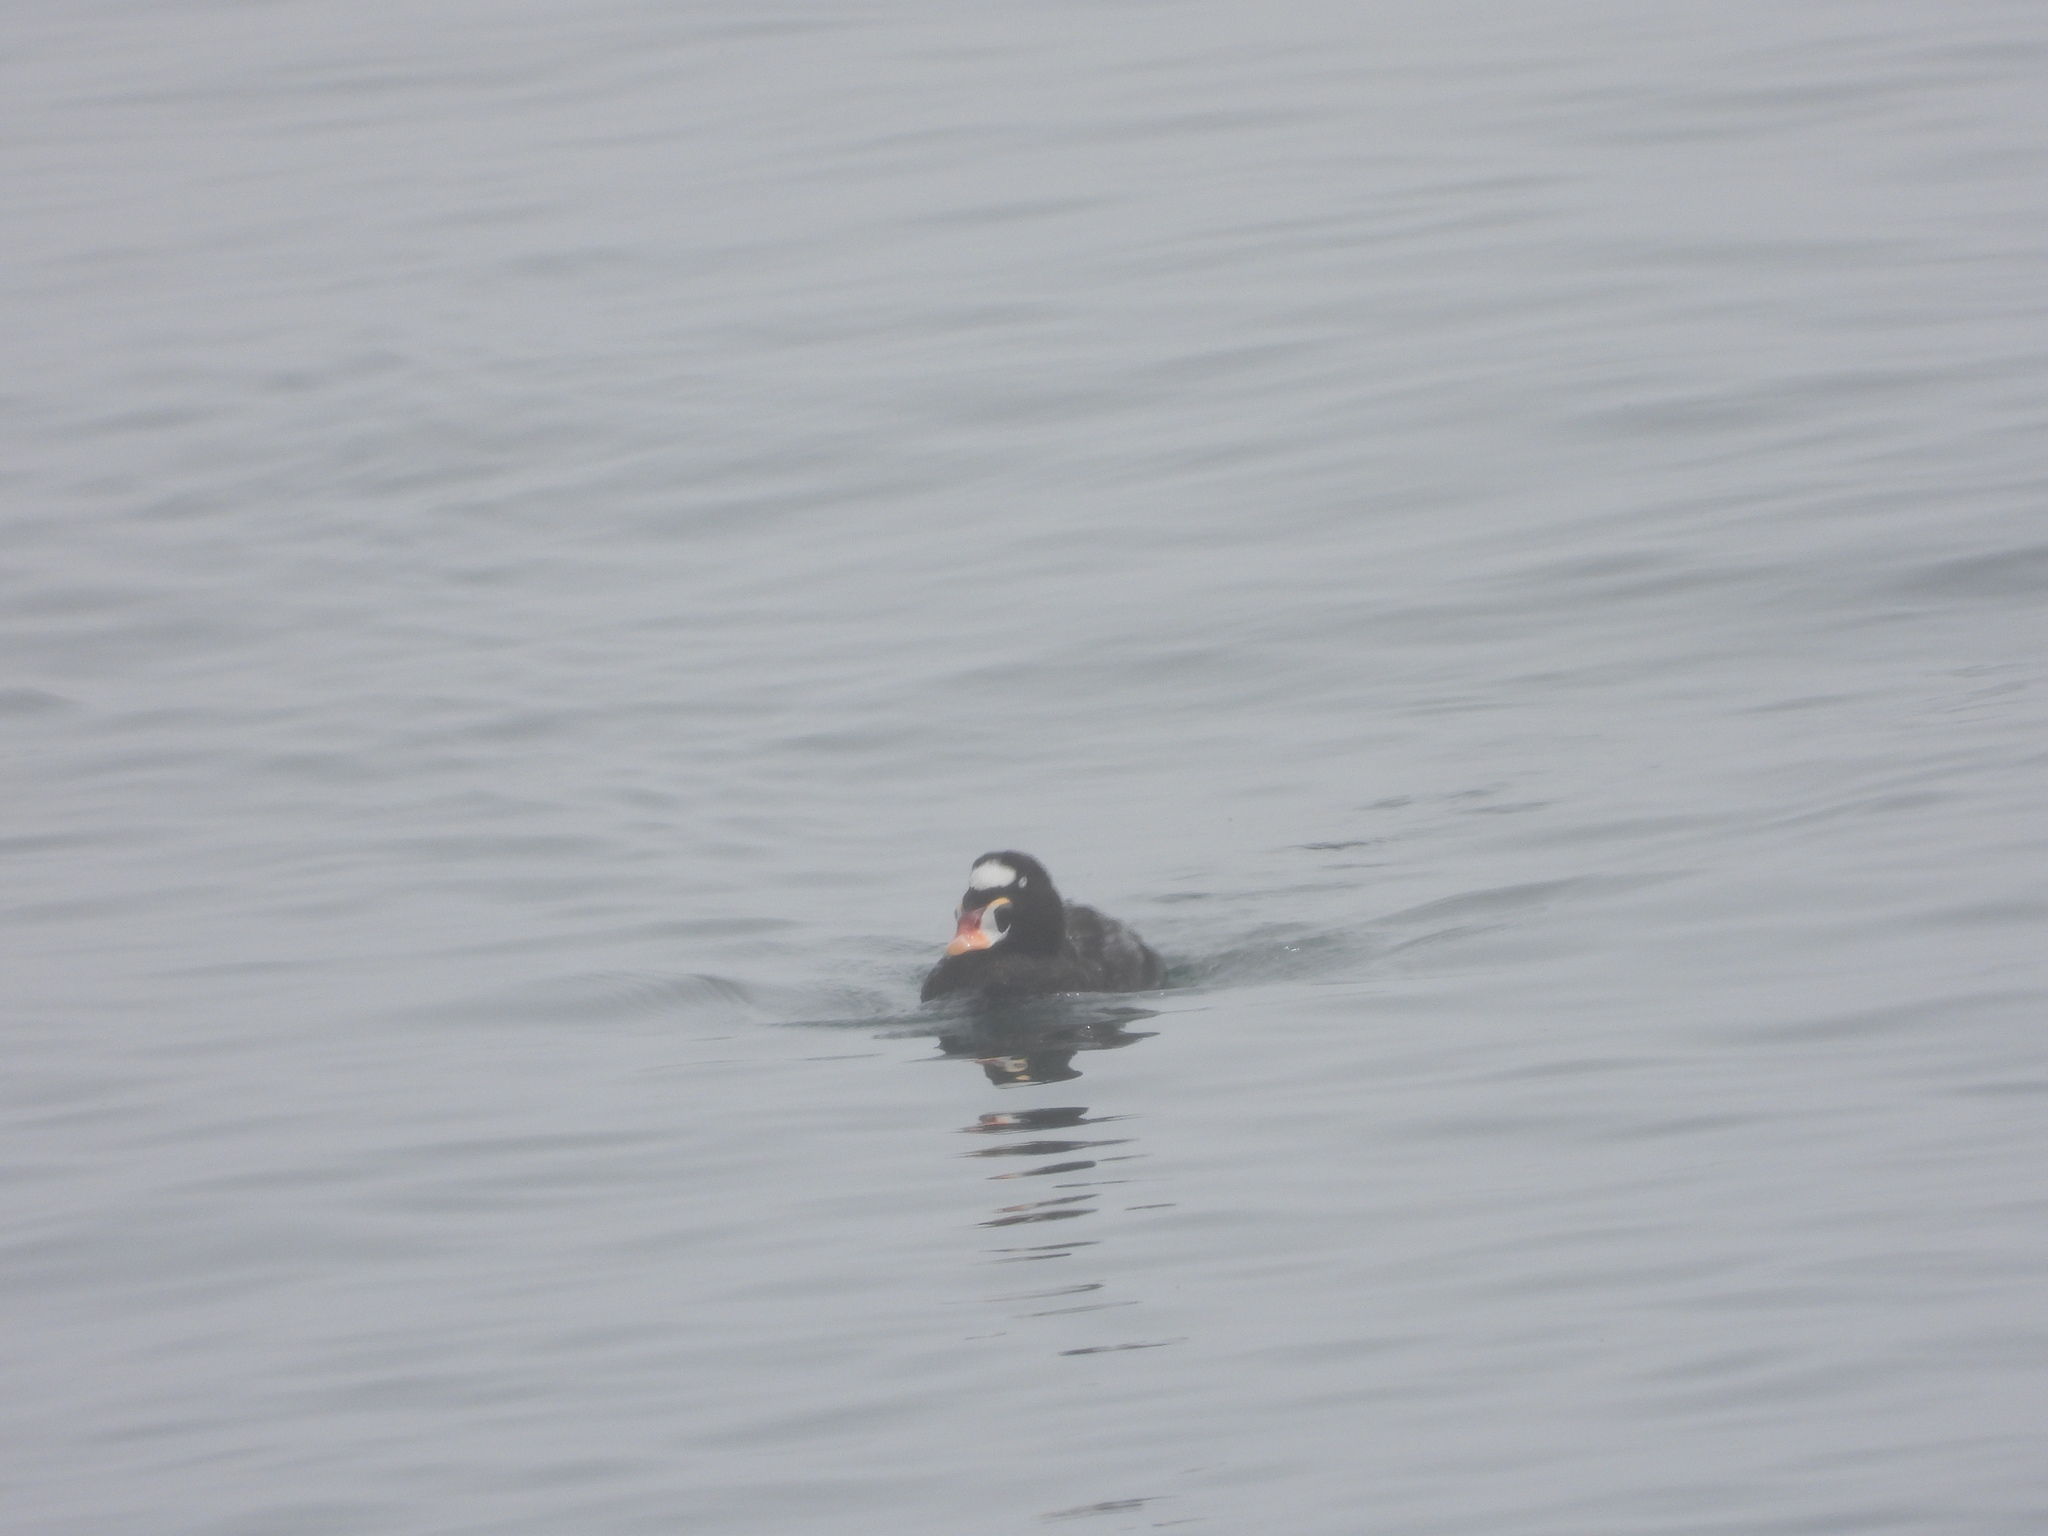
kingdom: Animalia
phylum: Chordata
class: Aves
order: Anseriformes
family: Anatidae
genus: Melanitta
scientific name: Melanitta perspicillata
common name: Surf scoter
